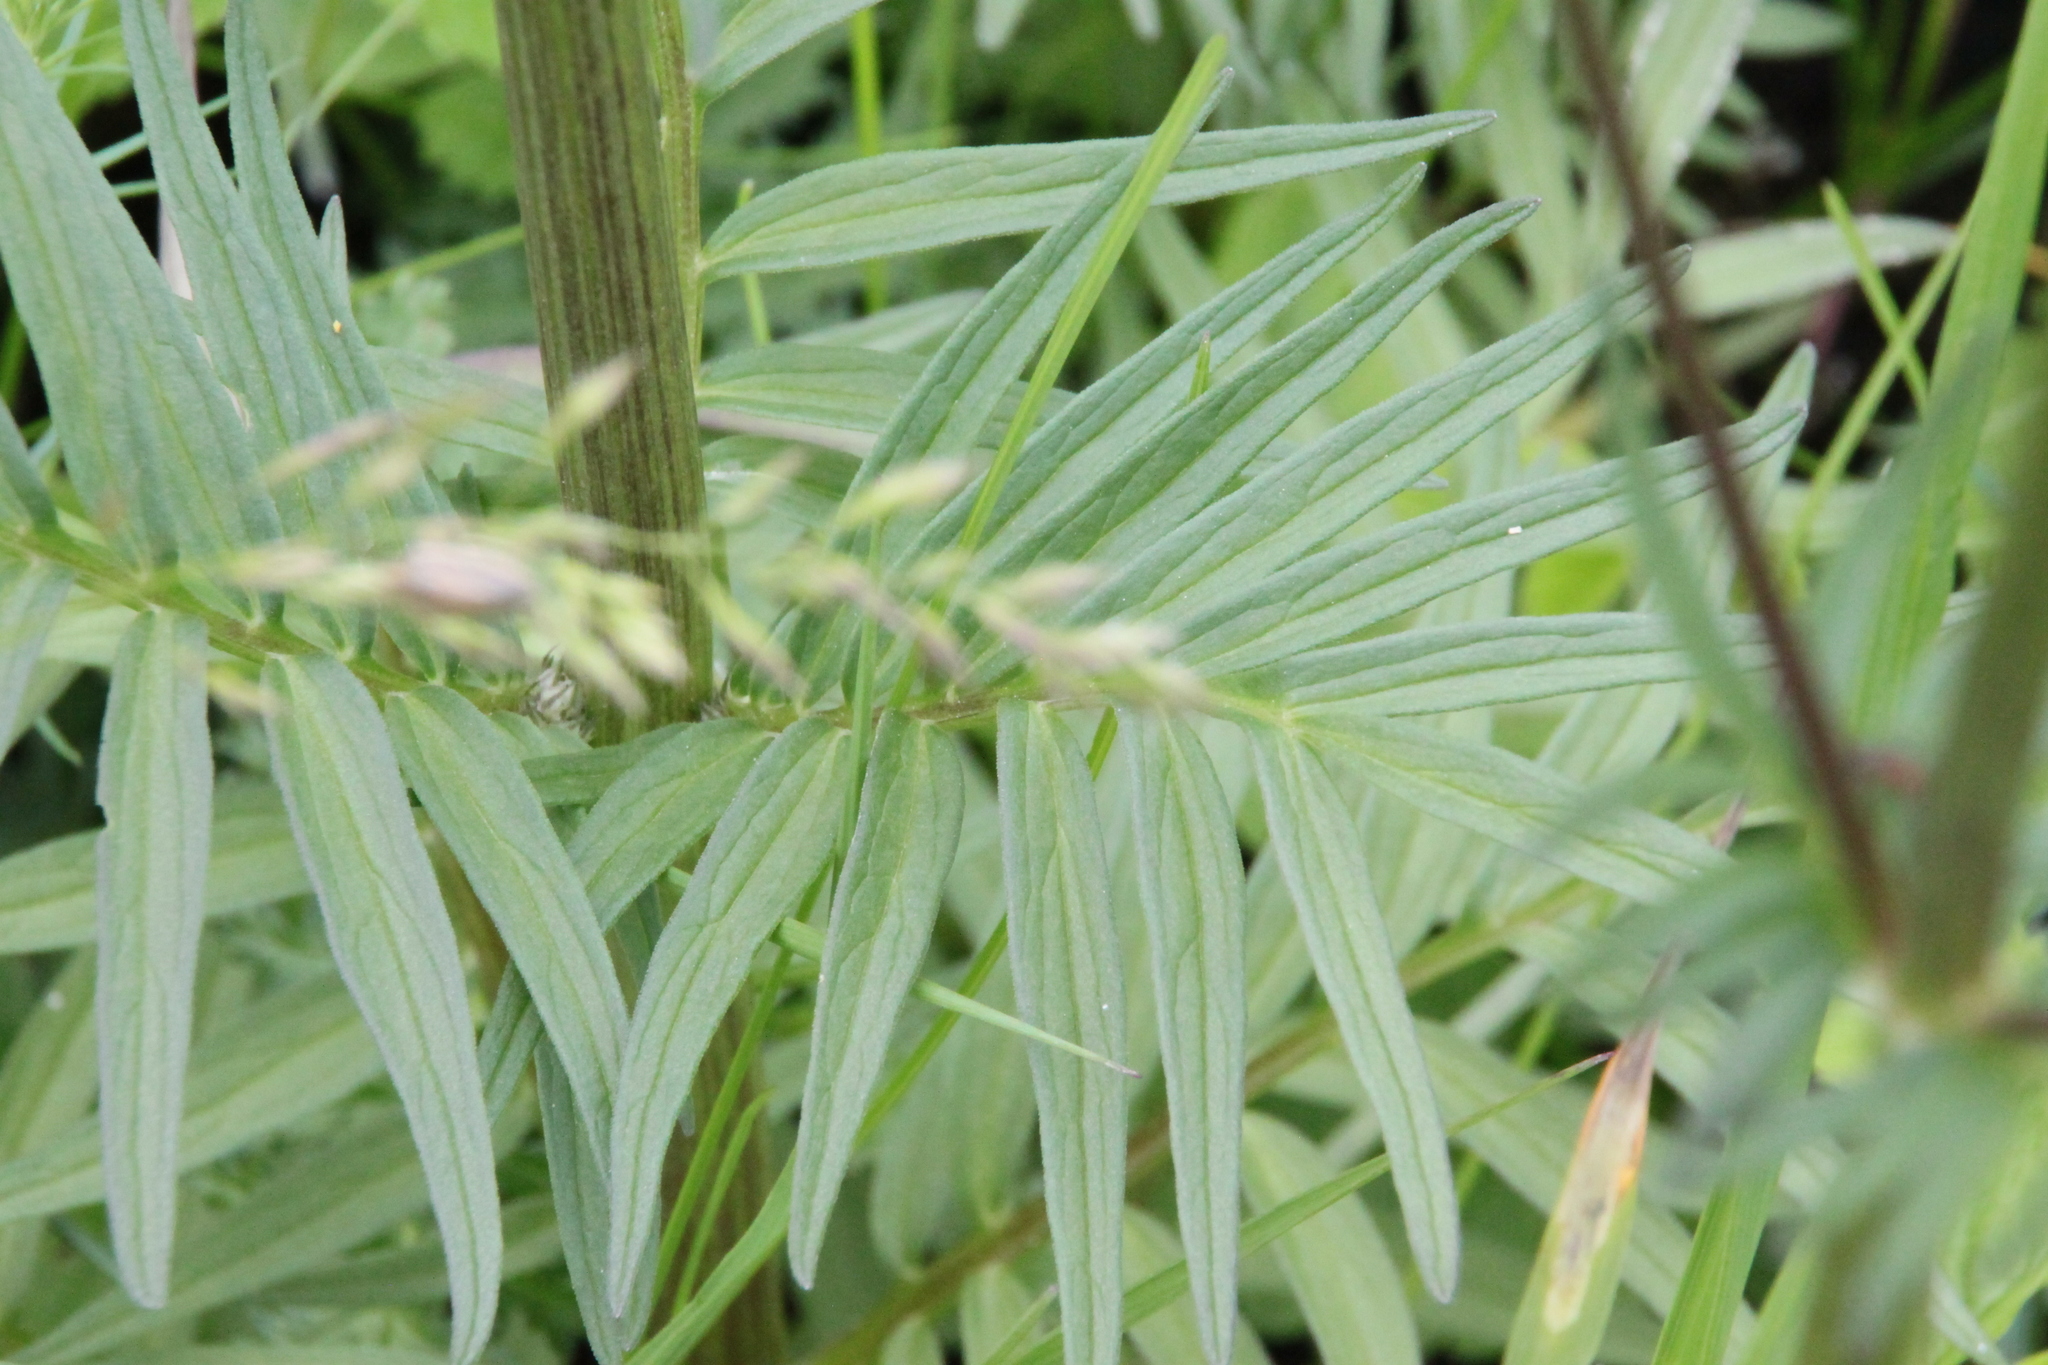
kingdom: Plantae
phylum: Tracheophyta
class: Magnoliopsida
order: Dipsacales
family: Caprifoliaceae
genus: Valeriana
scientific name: Valeriana officinalis
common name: Common valerian
